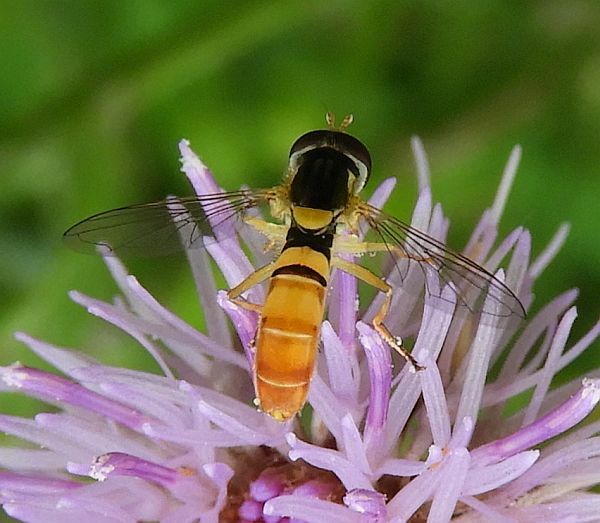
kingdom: Animalia
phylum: Arthropoda
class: Insecta
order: Diptera
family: Syrphidae
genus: Sphaerophoria
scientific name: Sphaerophoria contigua
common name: Tufted globetail
